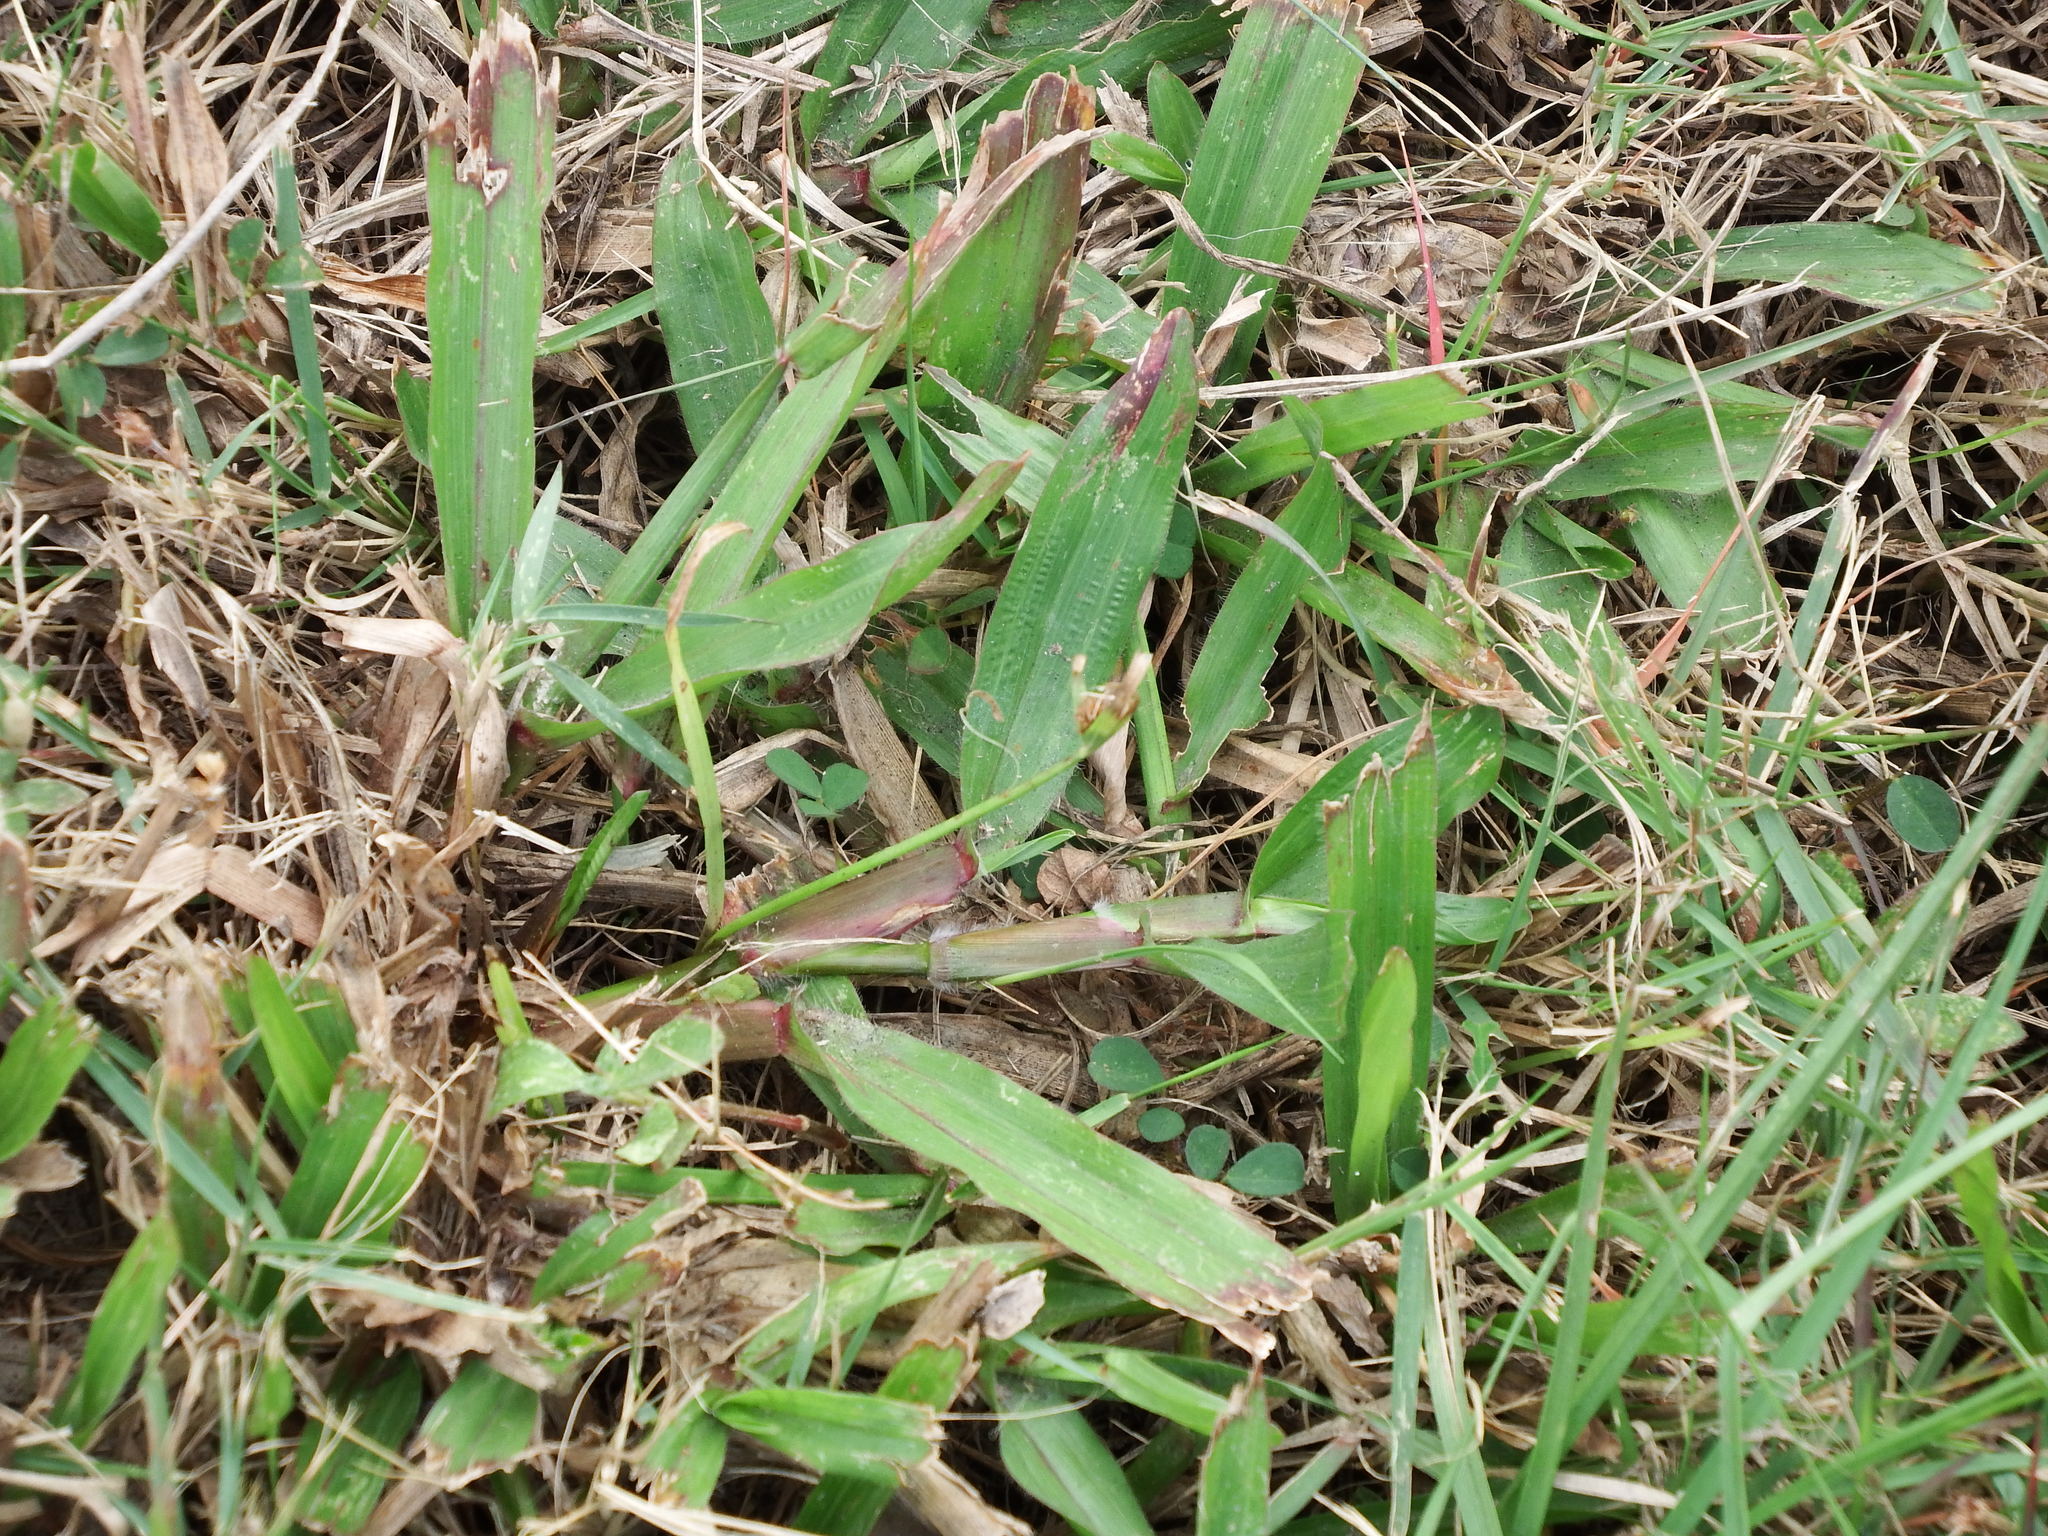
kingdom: Plantae
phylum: Tracheophyta
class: Liliopsida
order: Poales
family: Poaceae
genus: Axonopus
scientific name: Axonopus compressus
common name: American carpet grass
